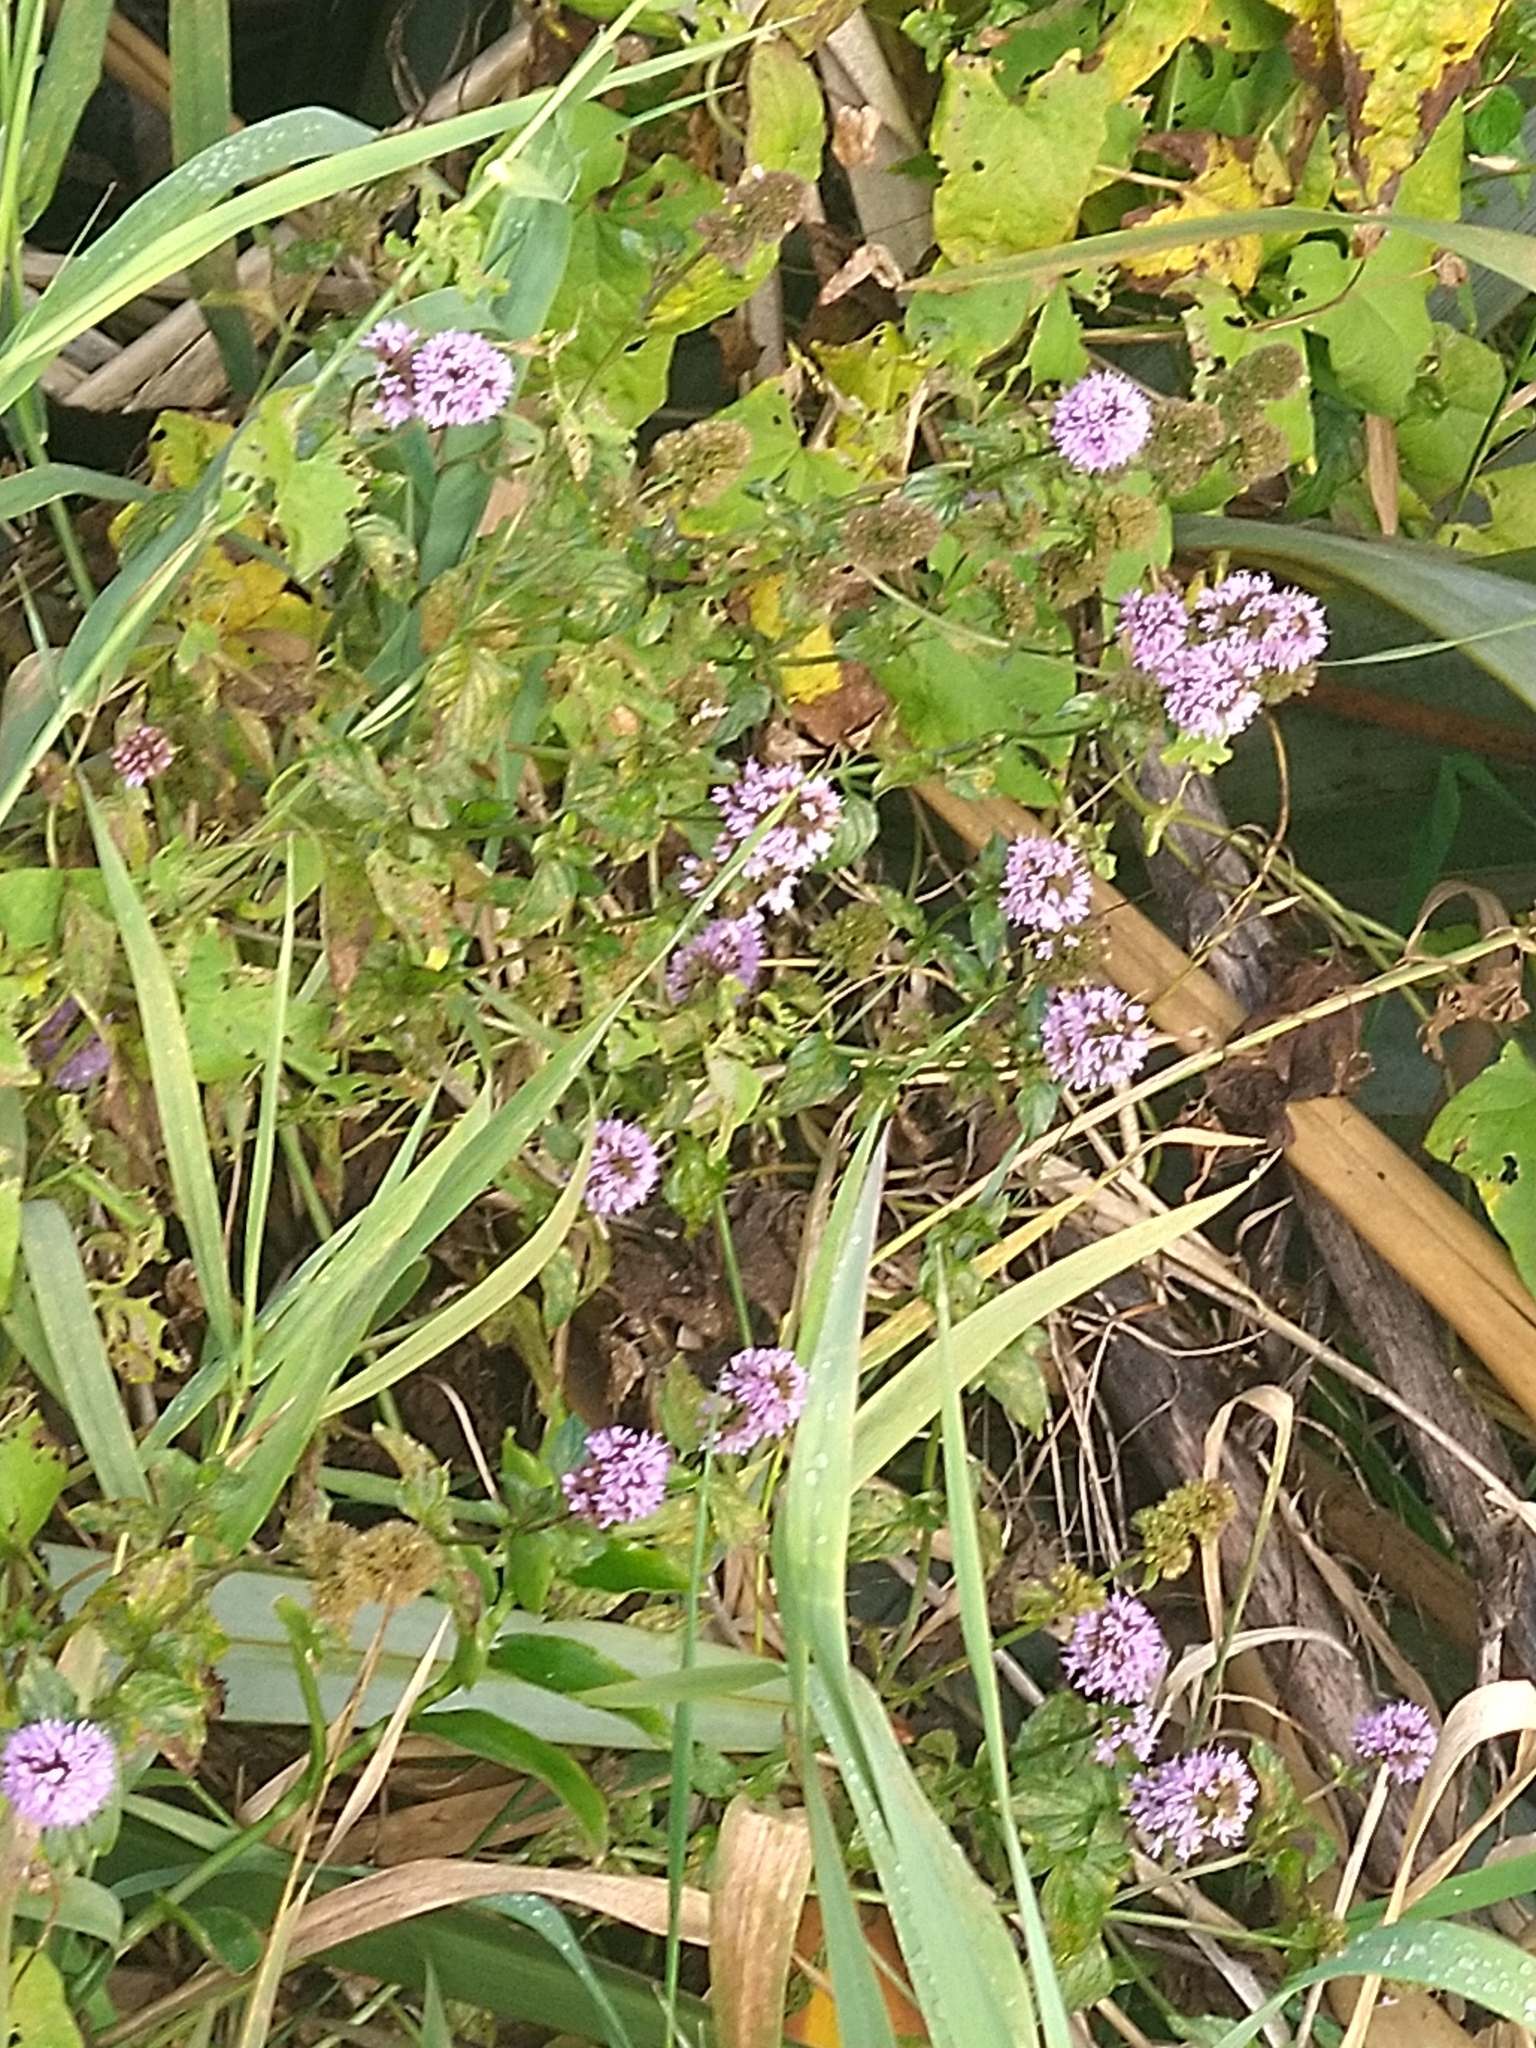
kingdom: Plantae
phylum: Tracheophyta
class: Magnoliopsida
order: Lamiales
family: Lamiaceae
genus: Mentha
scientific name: Mentha piperita
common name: Peppermint
